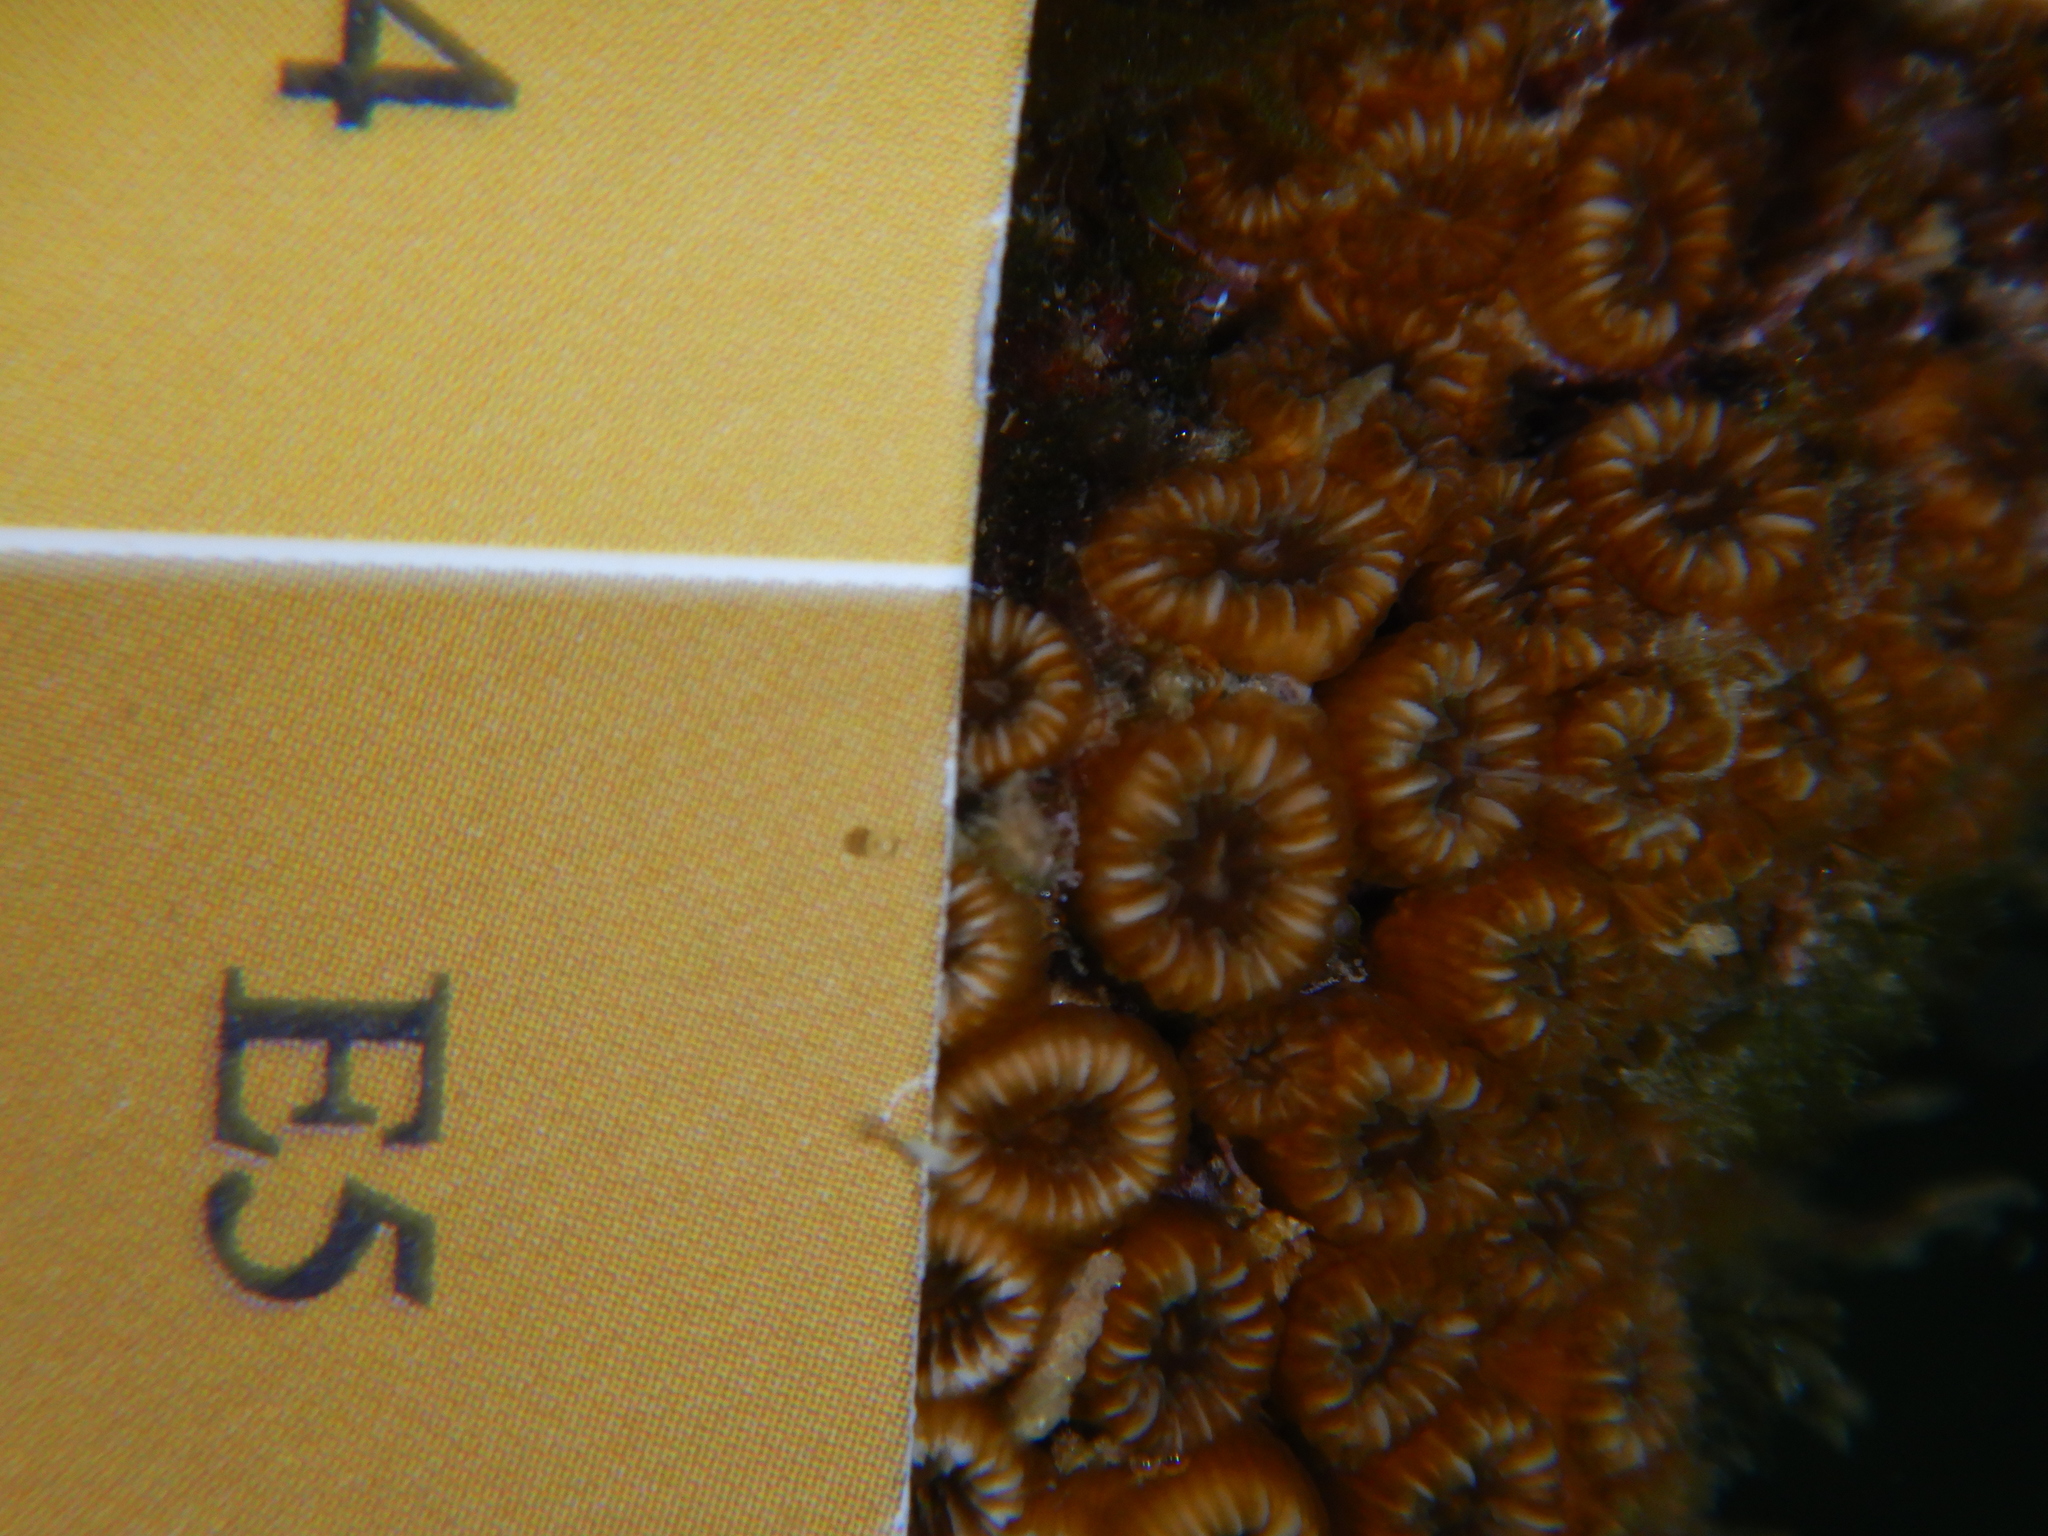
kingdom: Animalia
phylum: Cnidaria
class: Anthozoa
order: Scleractinia
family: Cladocoridae
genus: Cladocora
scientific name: Cladocora caespitosa
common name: Cladocora
